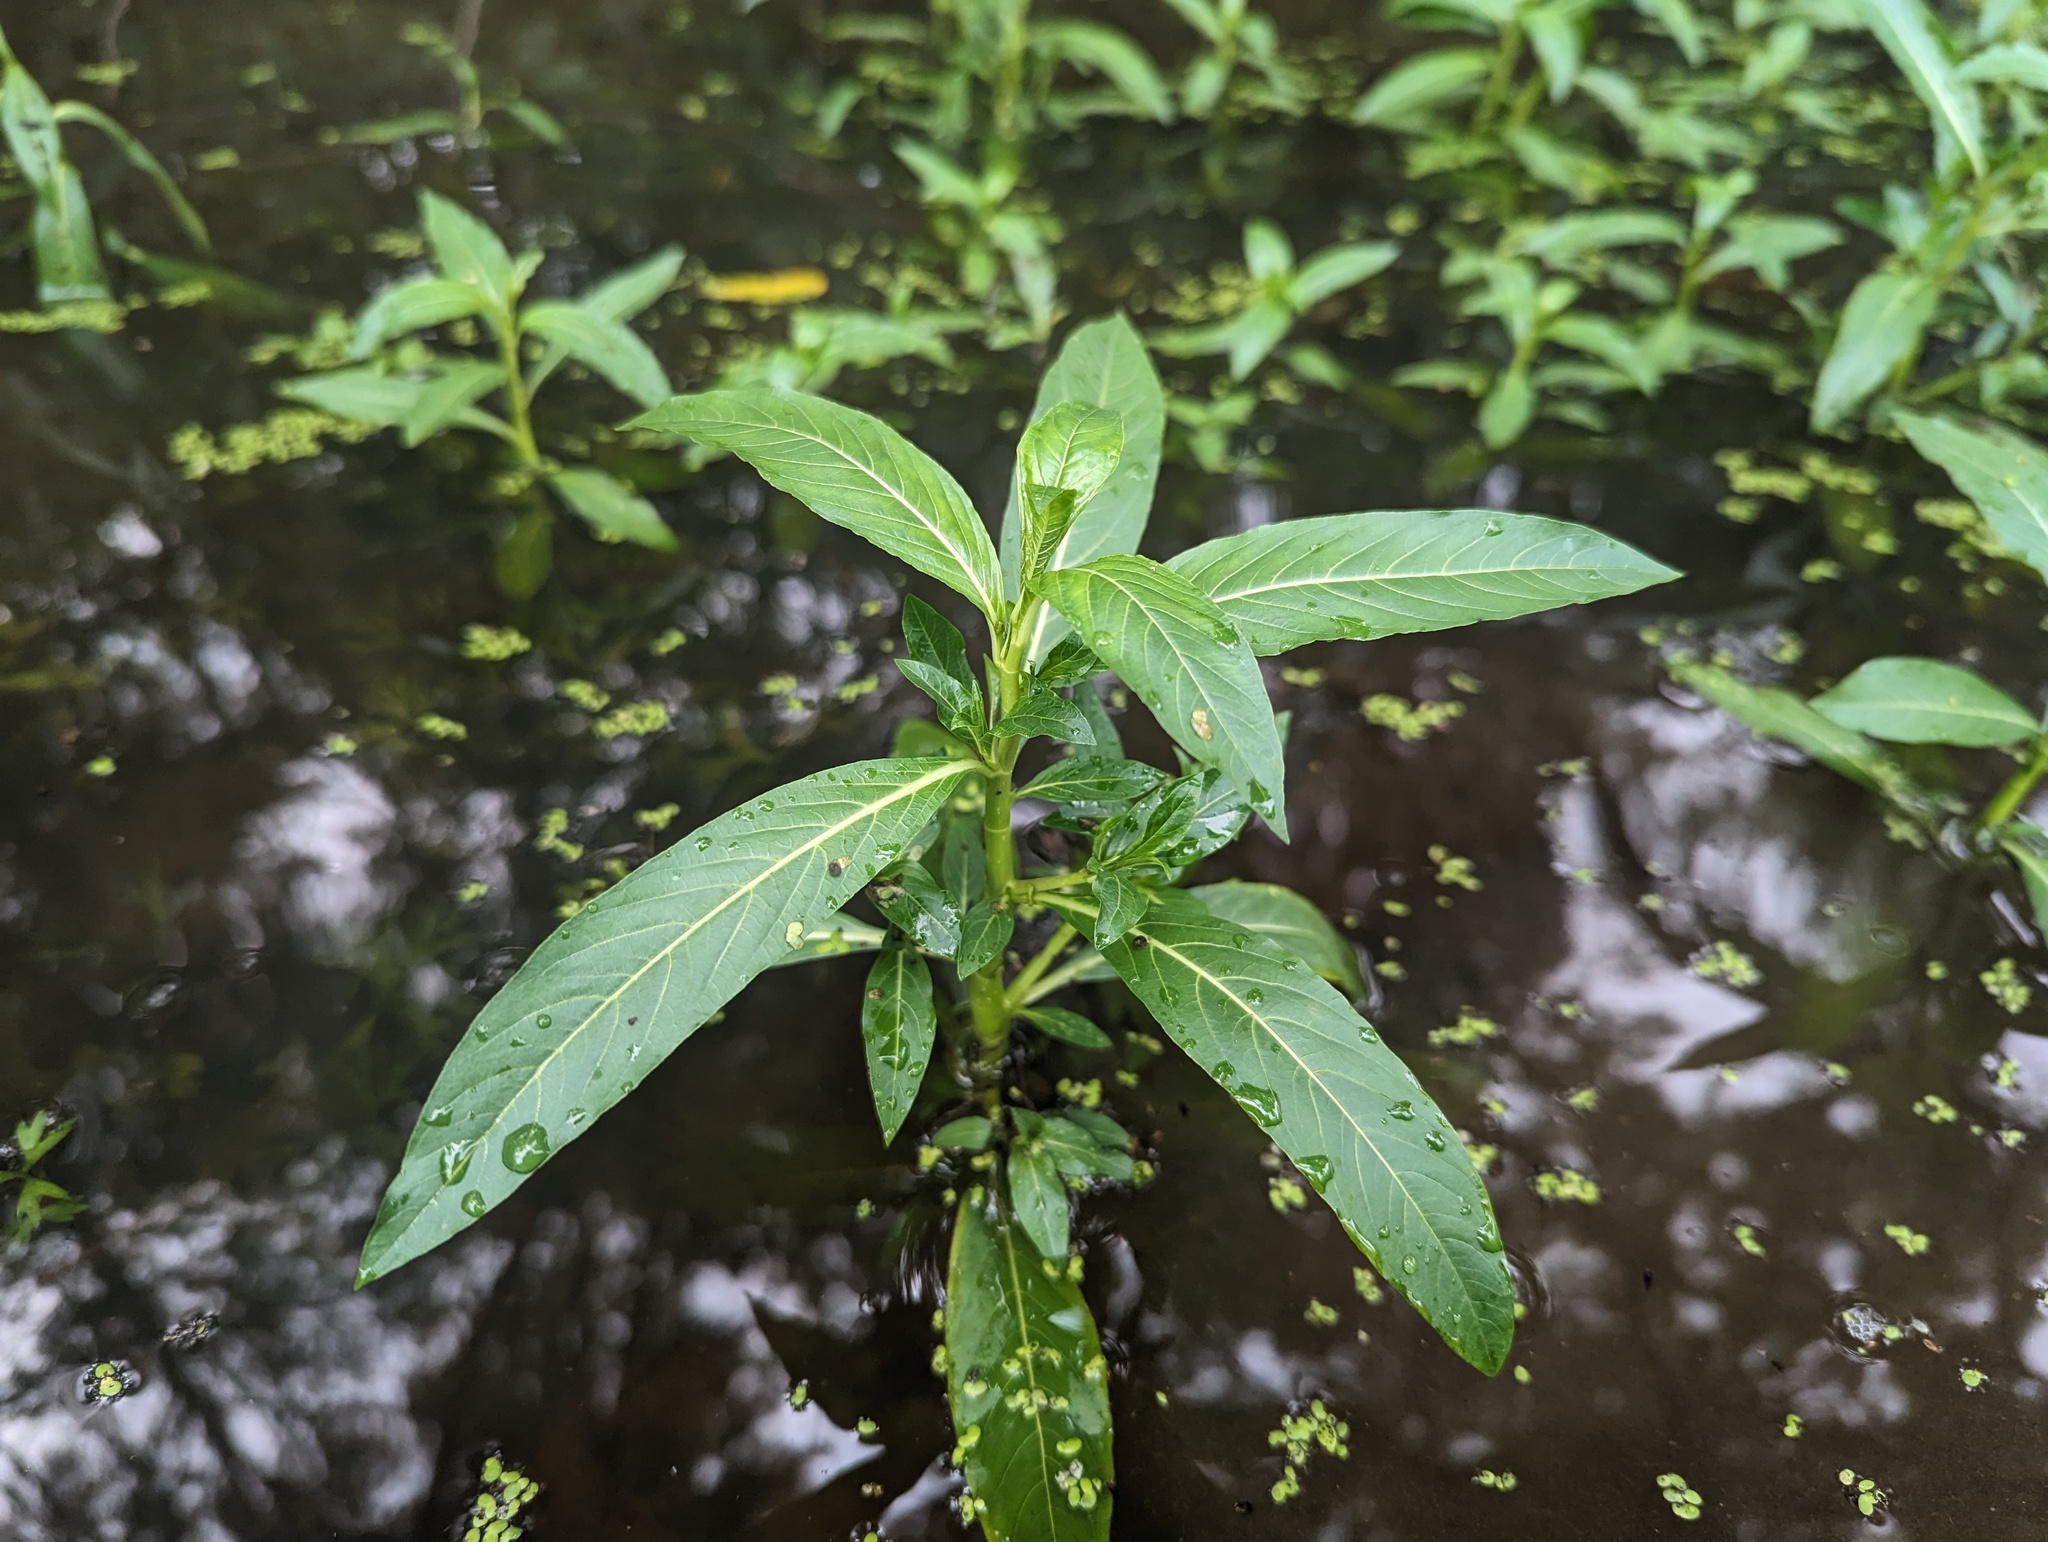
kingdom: Plantae
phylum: Tracheophyta
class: Magnoliopsida
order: Solanales
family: Hydroleaceae
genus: Hydrolea
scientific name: Hydrolea uniflora
